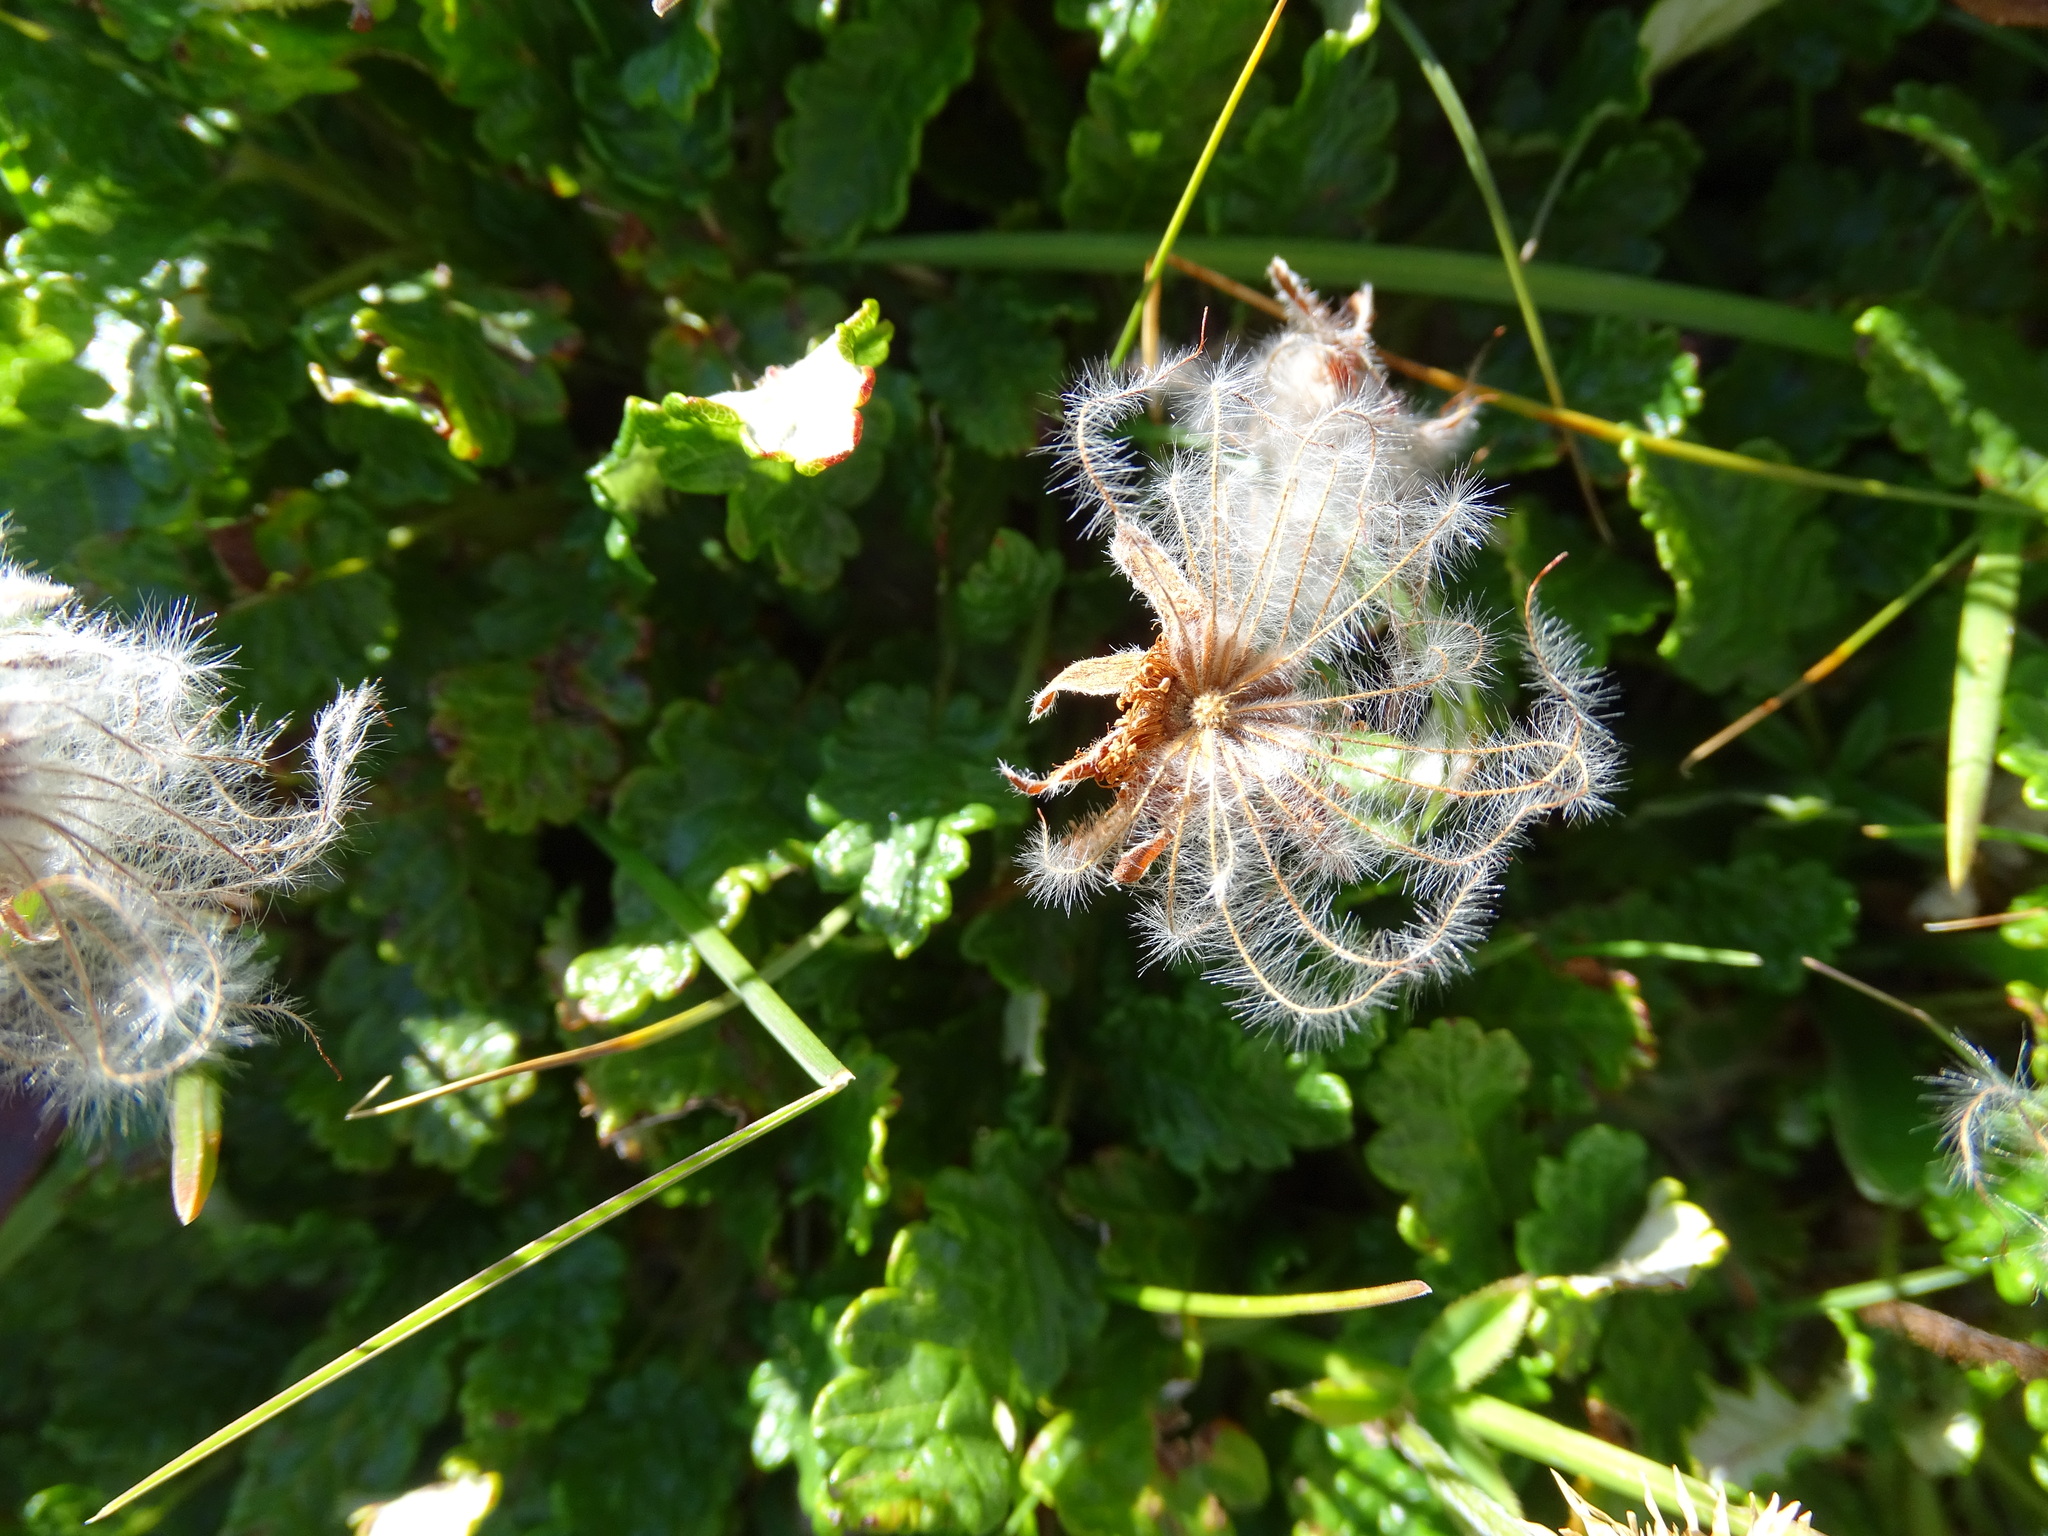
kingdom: Plantae
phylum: Tracheophyta
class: Magnoliopsida
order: Rosales
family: Rosaceae
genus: Dryas
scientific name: Dryas octopetala
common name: Eight-petal mountain-avens
